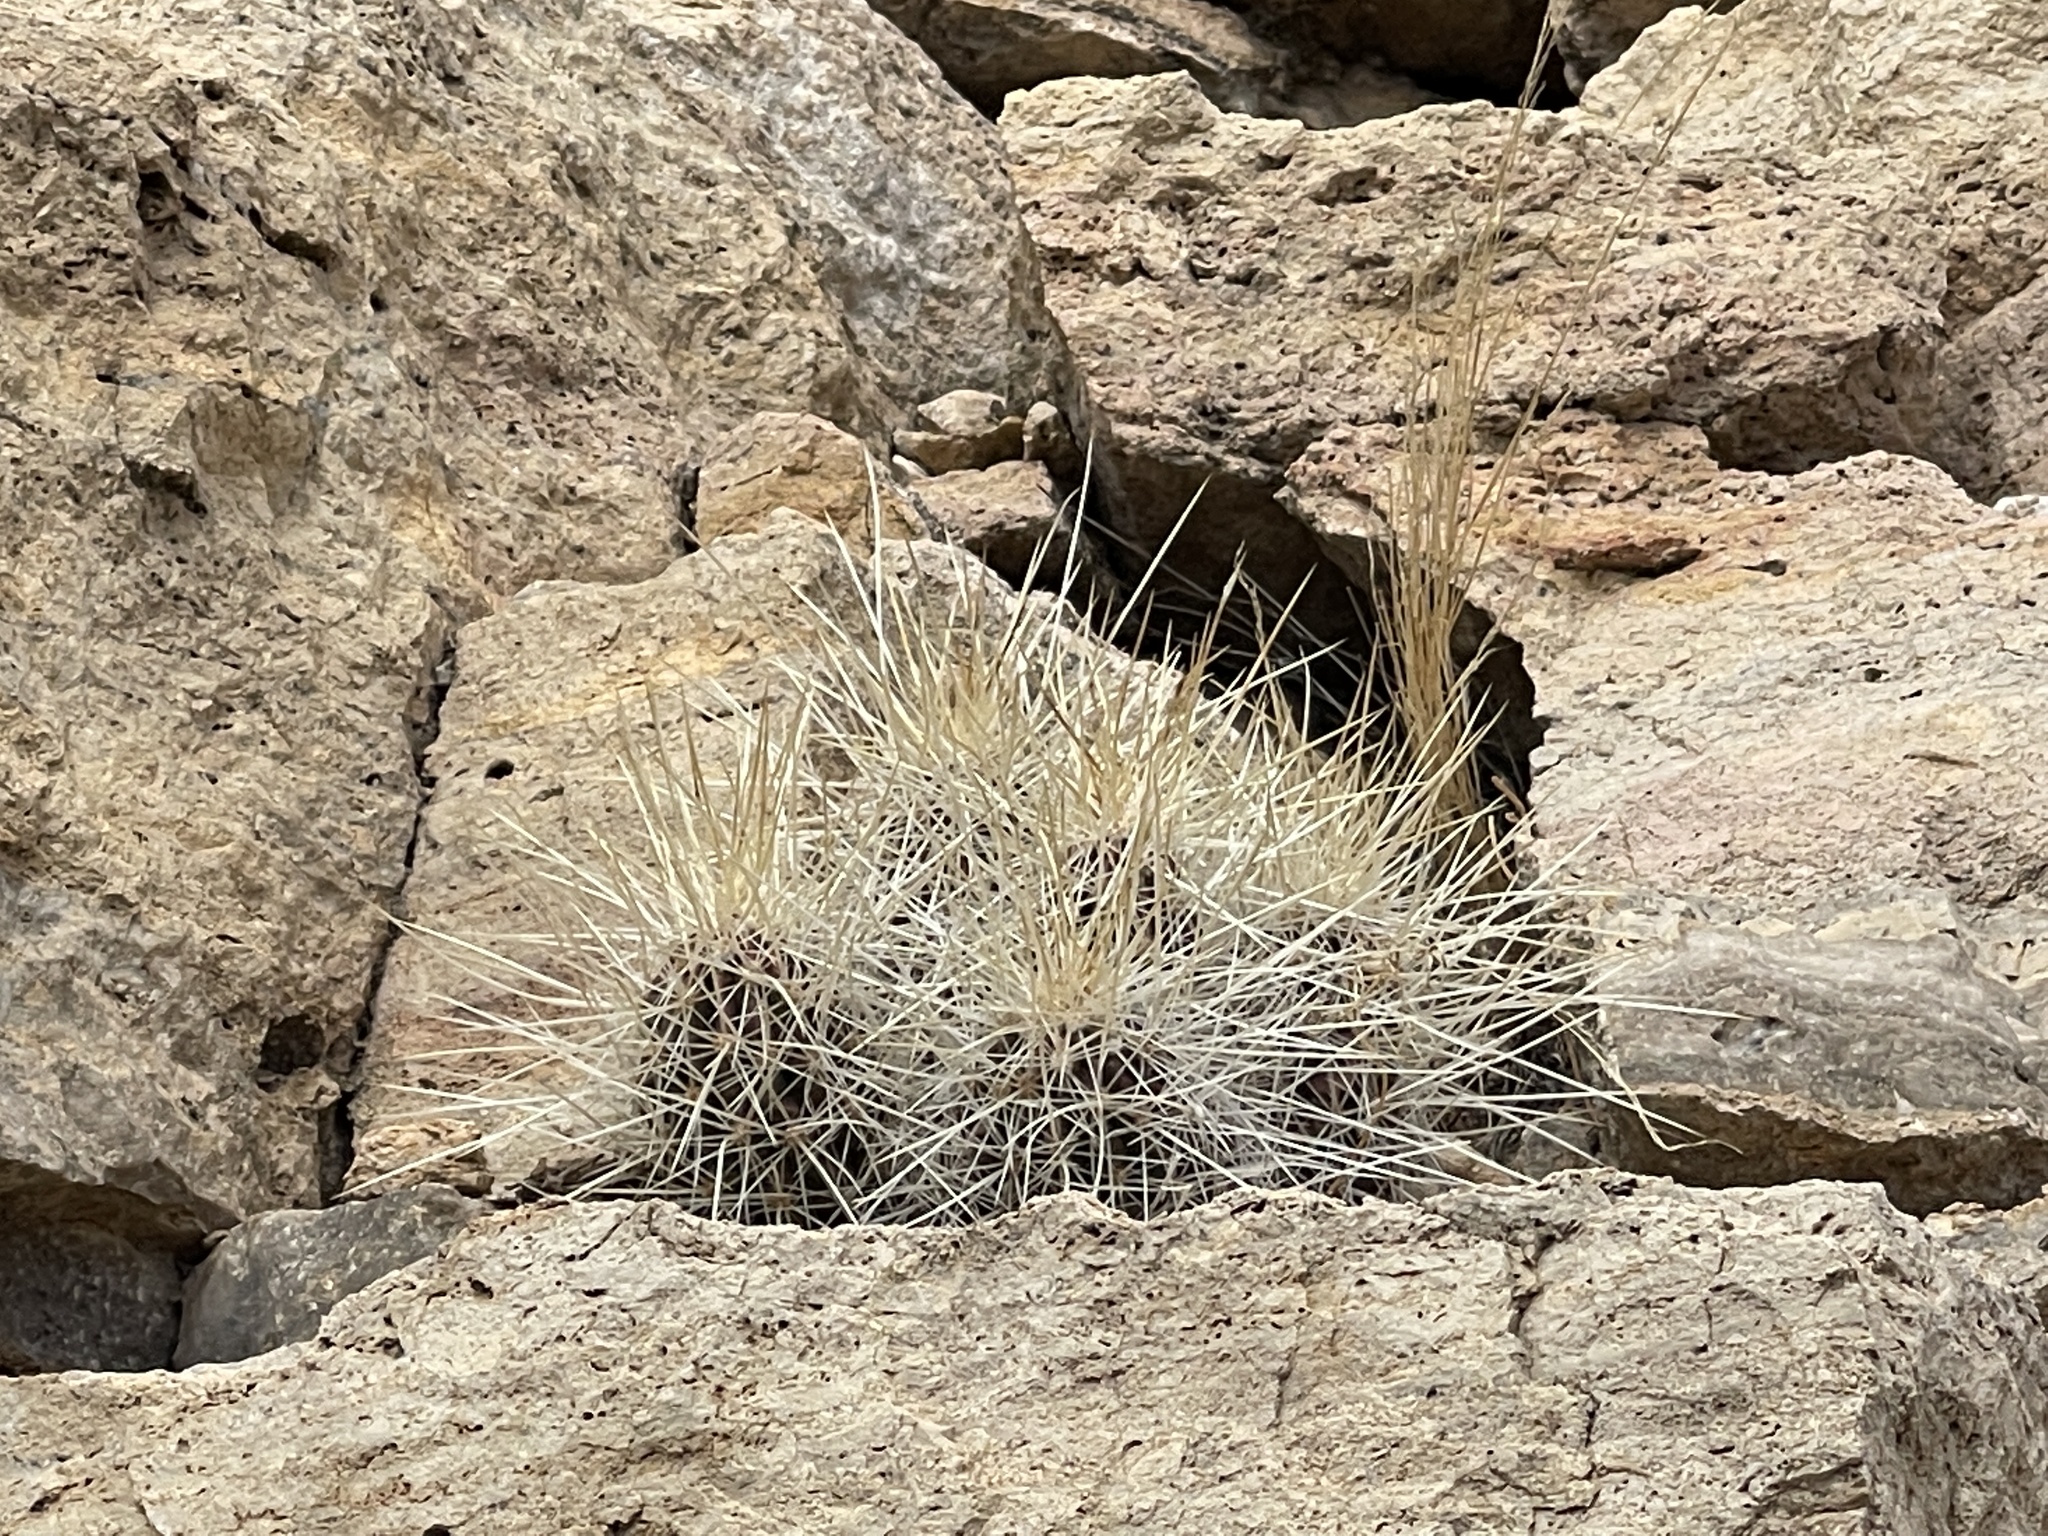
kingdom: Plantae
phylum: Tracheophyta
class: Magnoliopsida
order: Caryophyllales
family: Cactaceae
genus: Echinocereus
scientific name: Echinocereus stramineus
